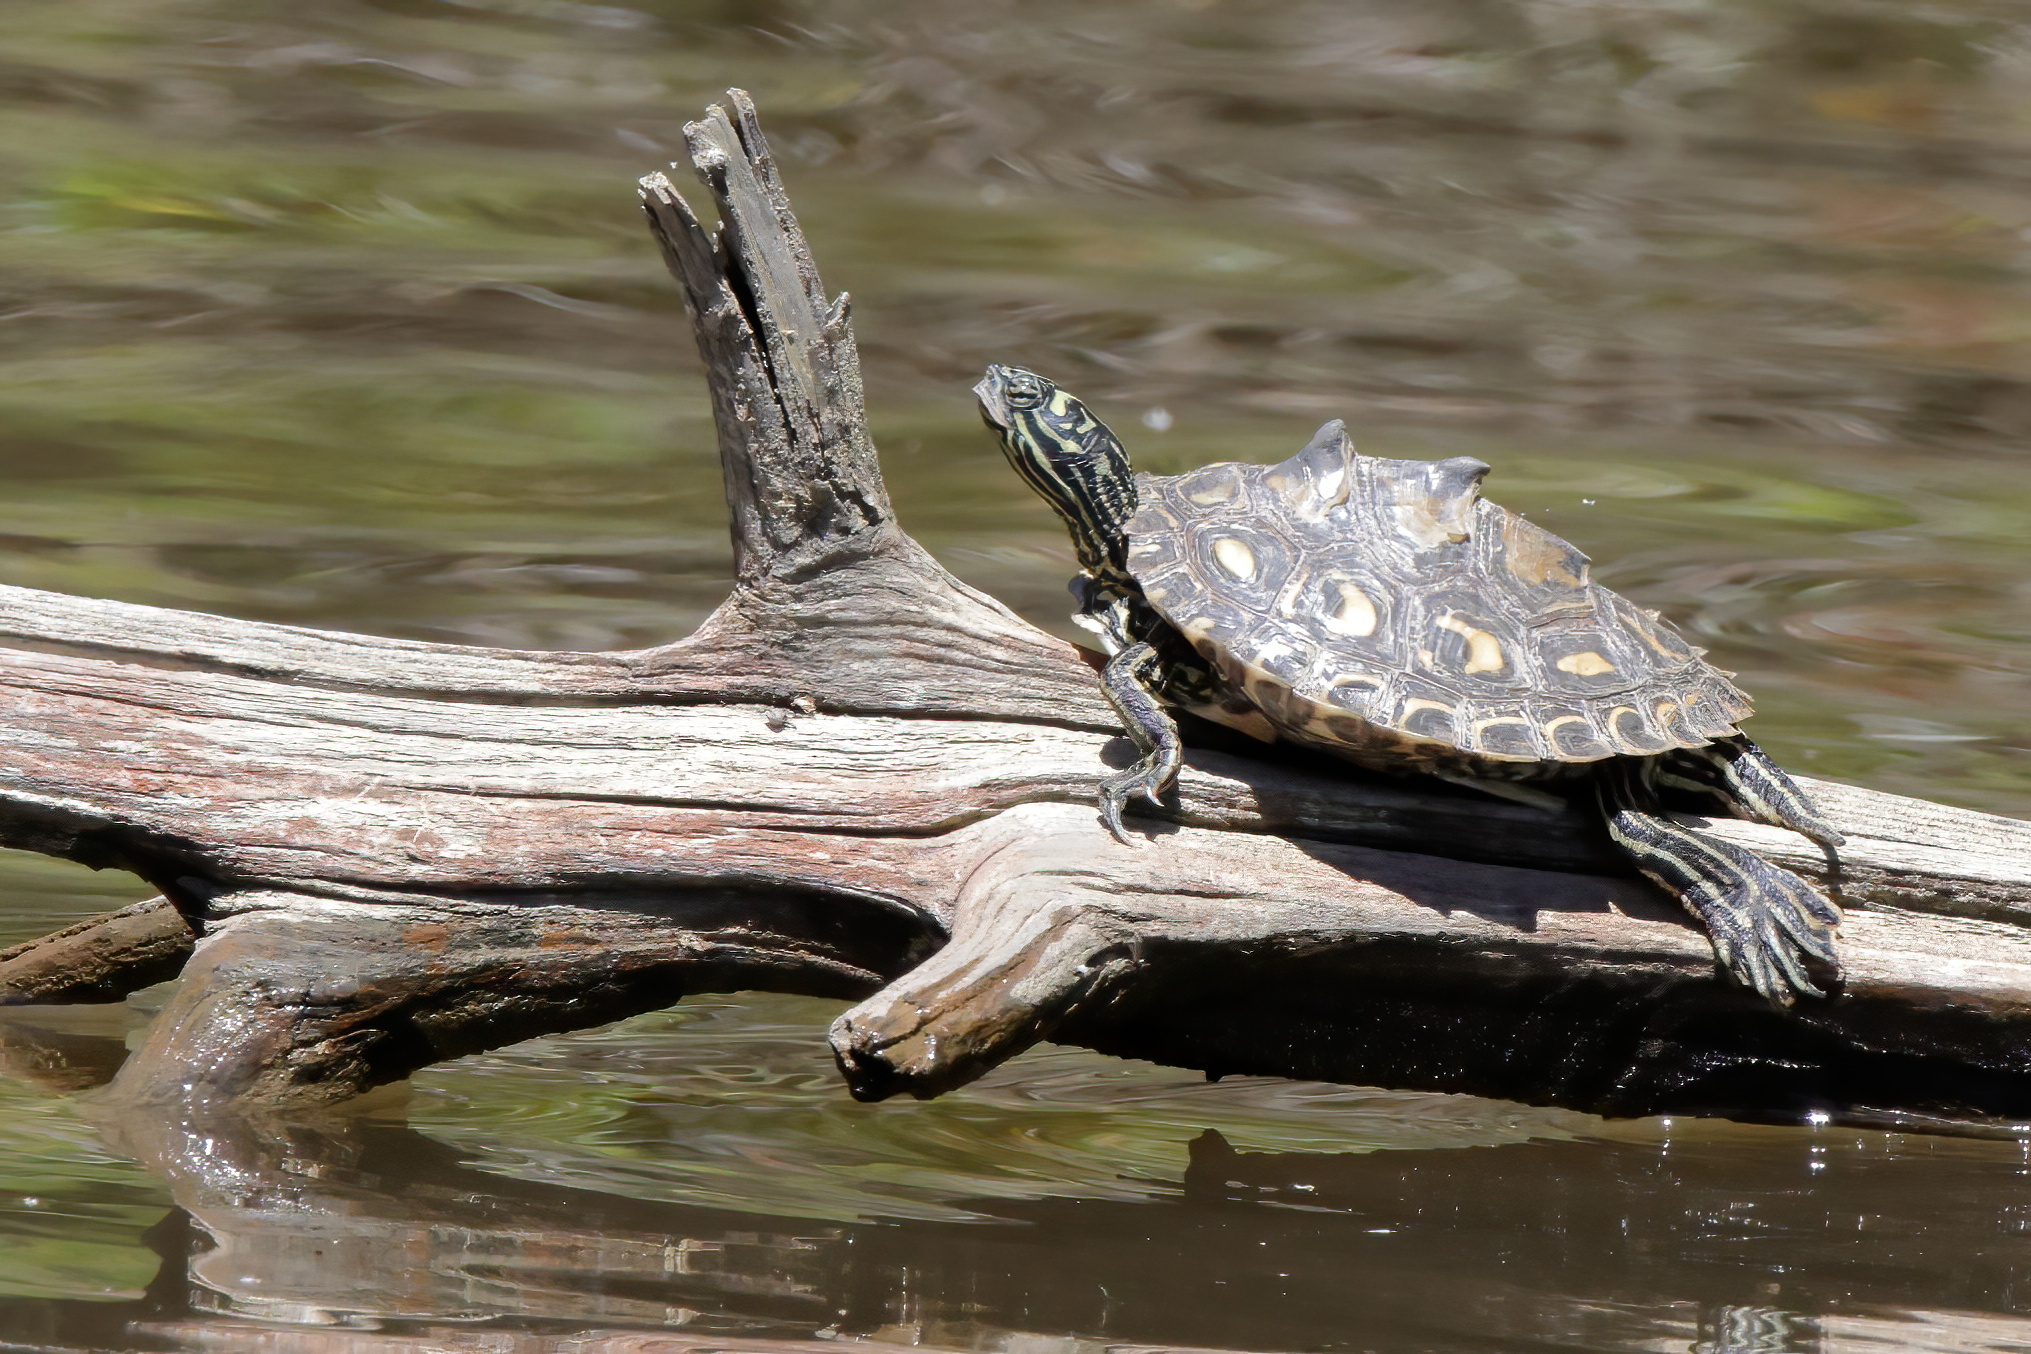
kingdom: Animalia
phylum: Chordata
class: Testudines
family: Emydidae
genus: Graptemys
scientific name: Graptemys flavimaculata
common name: Yellow-blotched map turtle
